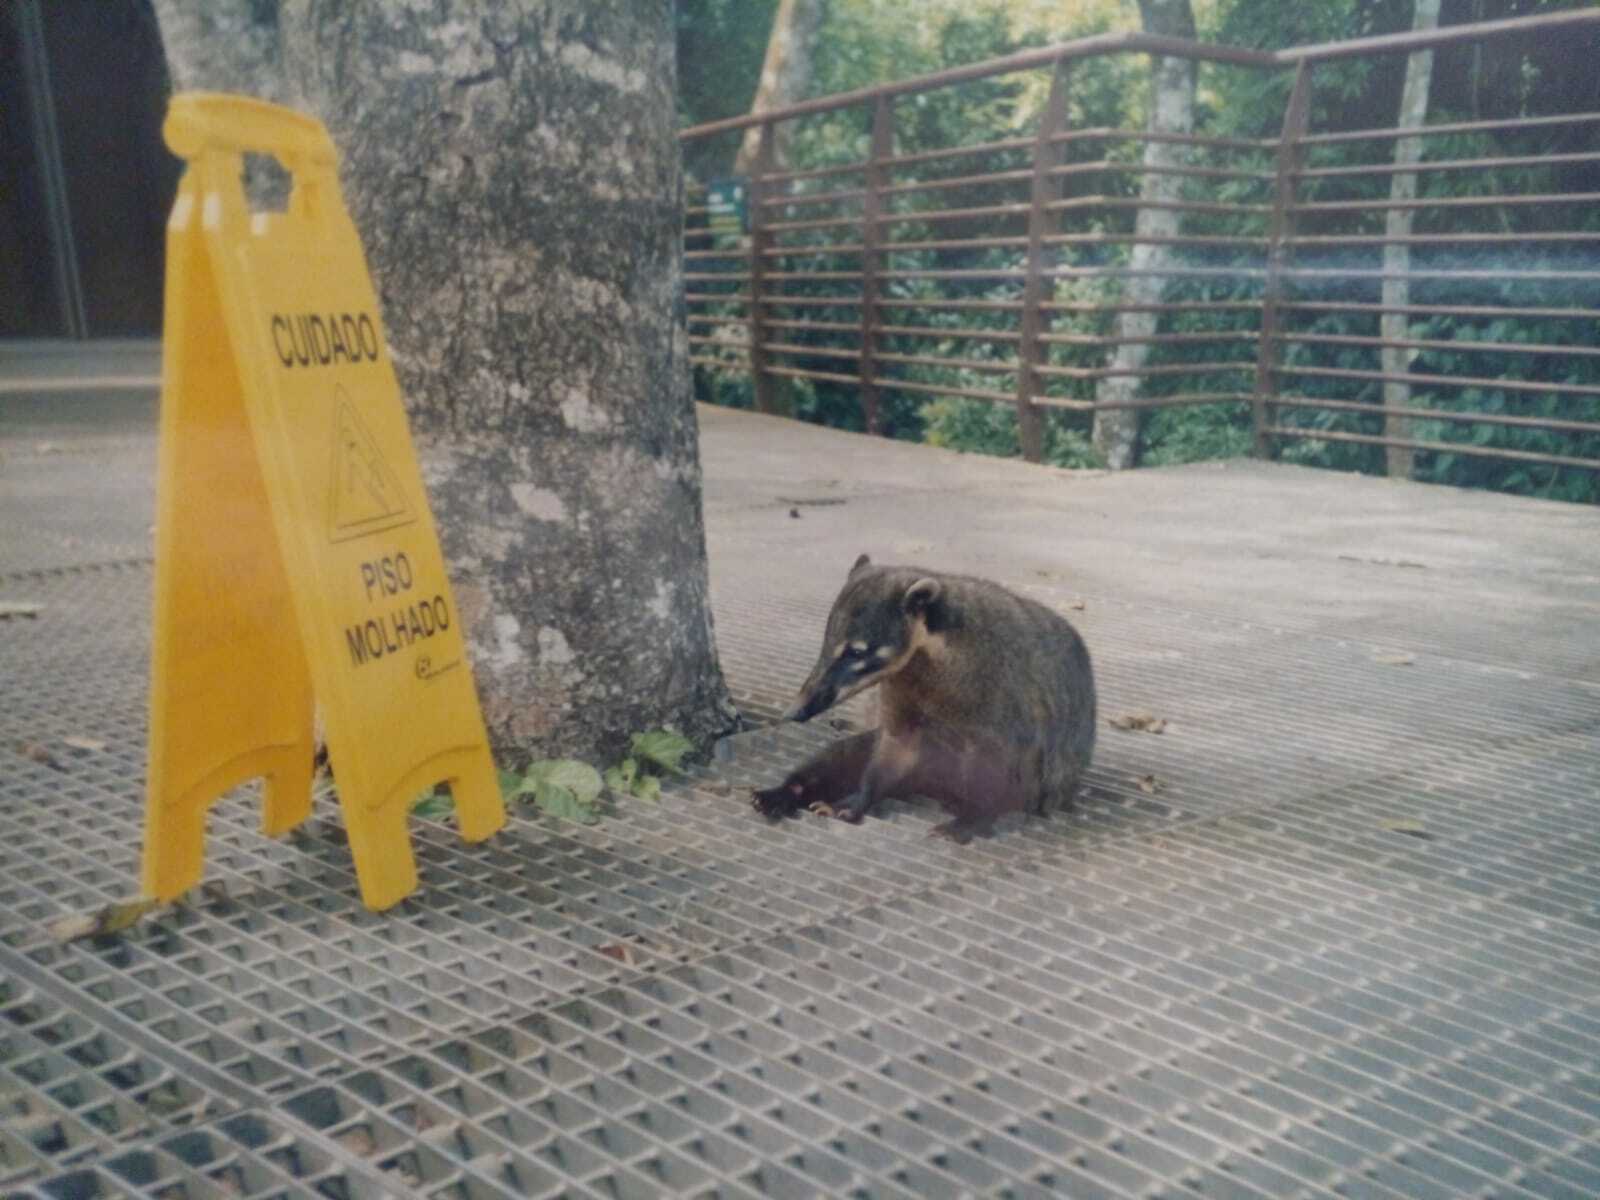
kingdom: Animalia
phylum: Chordata
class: Mammalia
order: Carnivora
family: Procyonidae
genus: Nasua
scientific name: Nasua nasua
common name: South american coati
